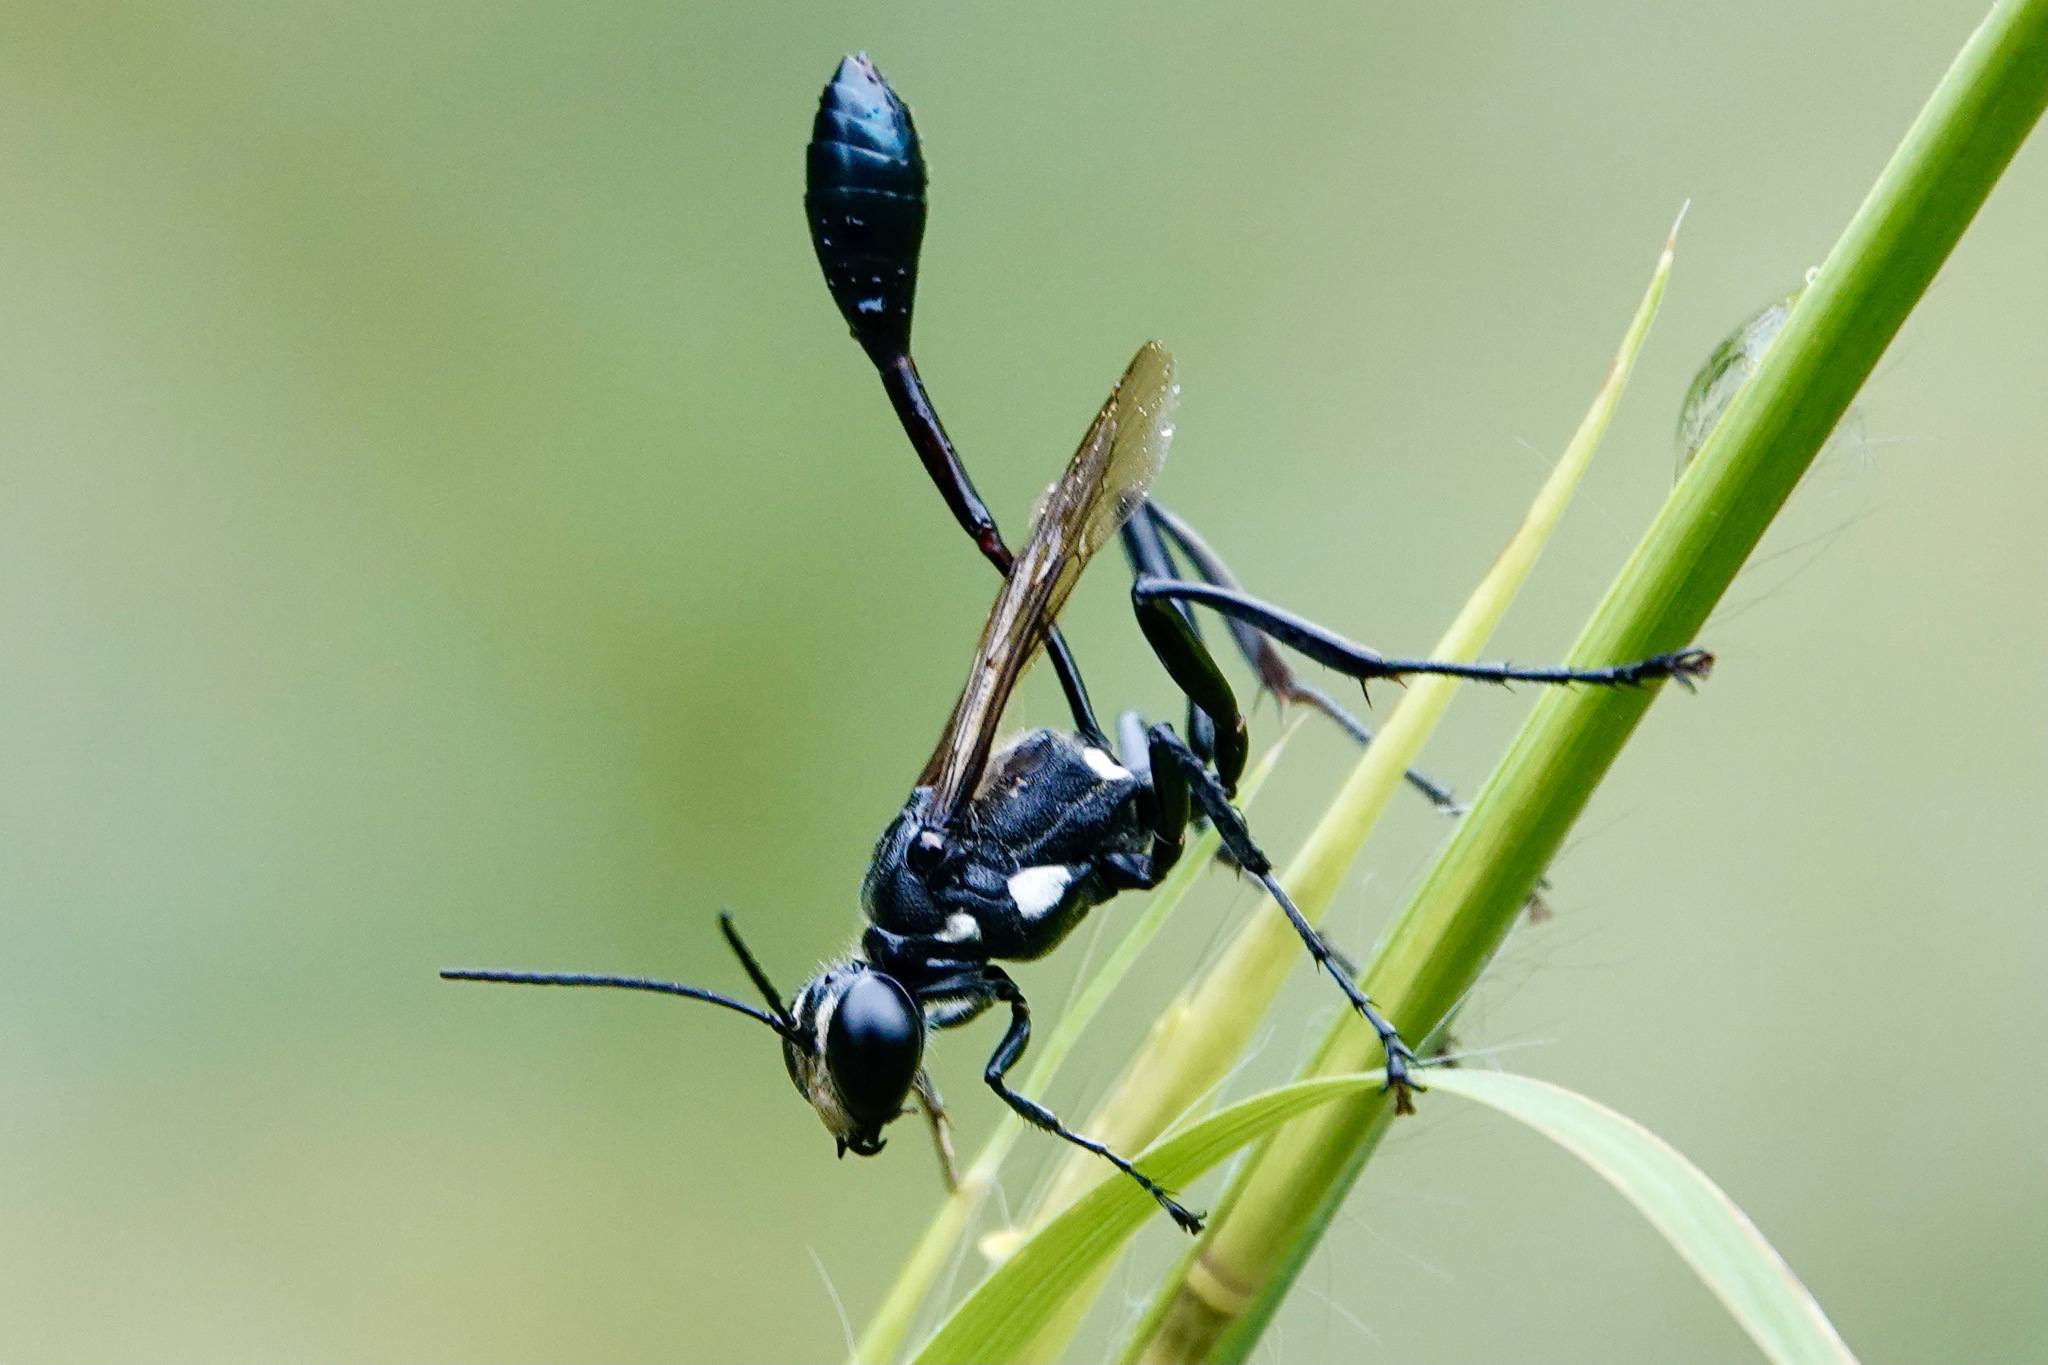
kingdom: Animalia
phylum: Arthropoda
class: Insecta
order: Hymenoptera
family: Sphecidae
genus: Eremnophila
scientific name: Eremnophila aureonotata
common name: Gold-marked thread-waisted wasp
